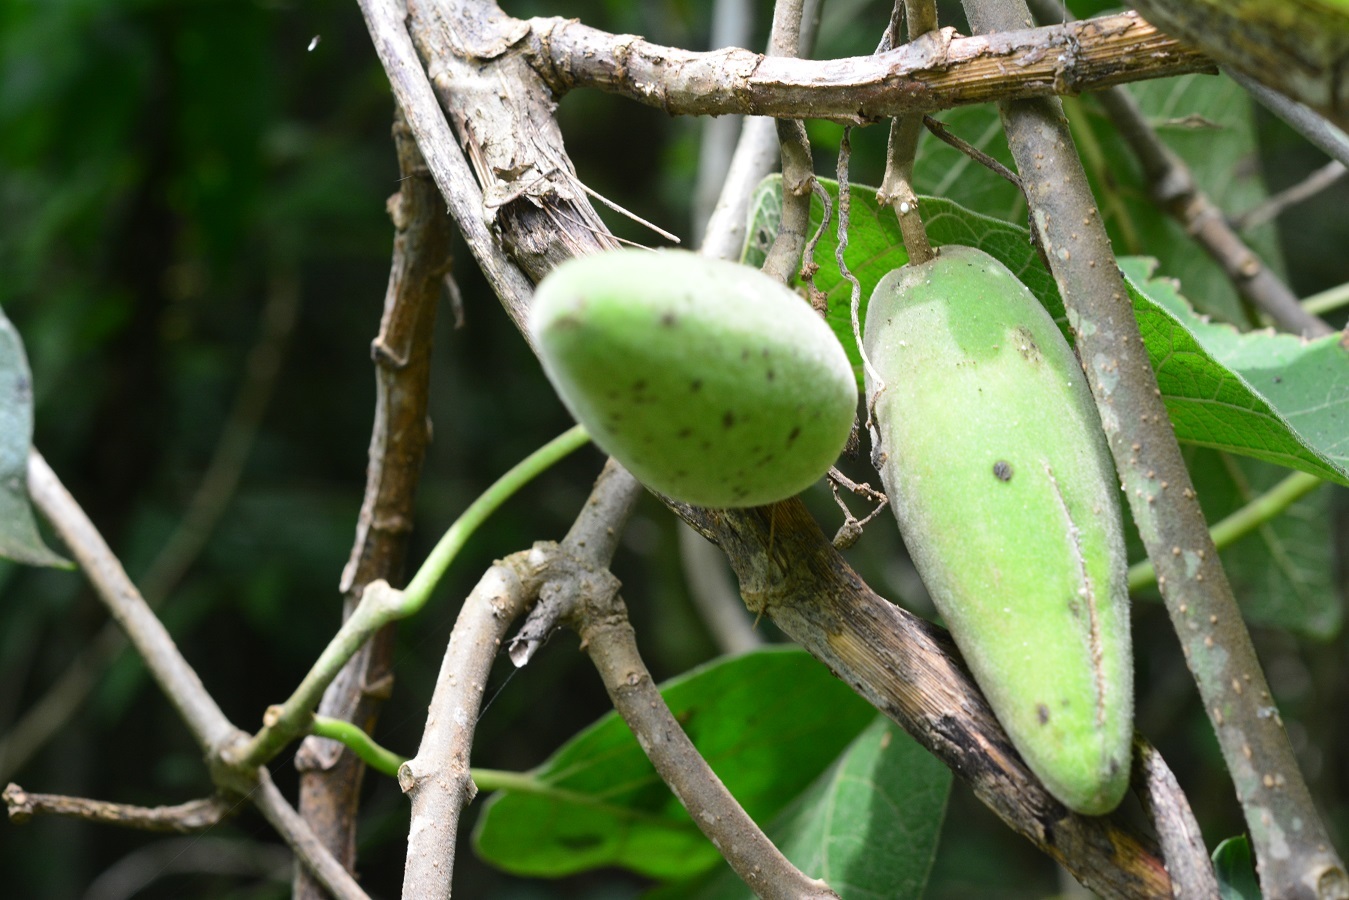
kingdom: Plantae
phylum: Tracheophyta
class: Magnoliopsida
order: Gentianales
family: Apocynaceae
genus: Ruehssia
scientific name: Ruehssia mexicana
